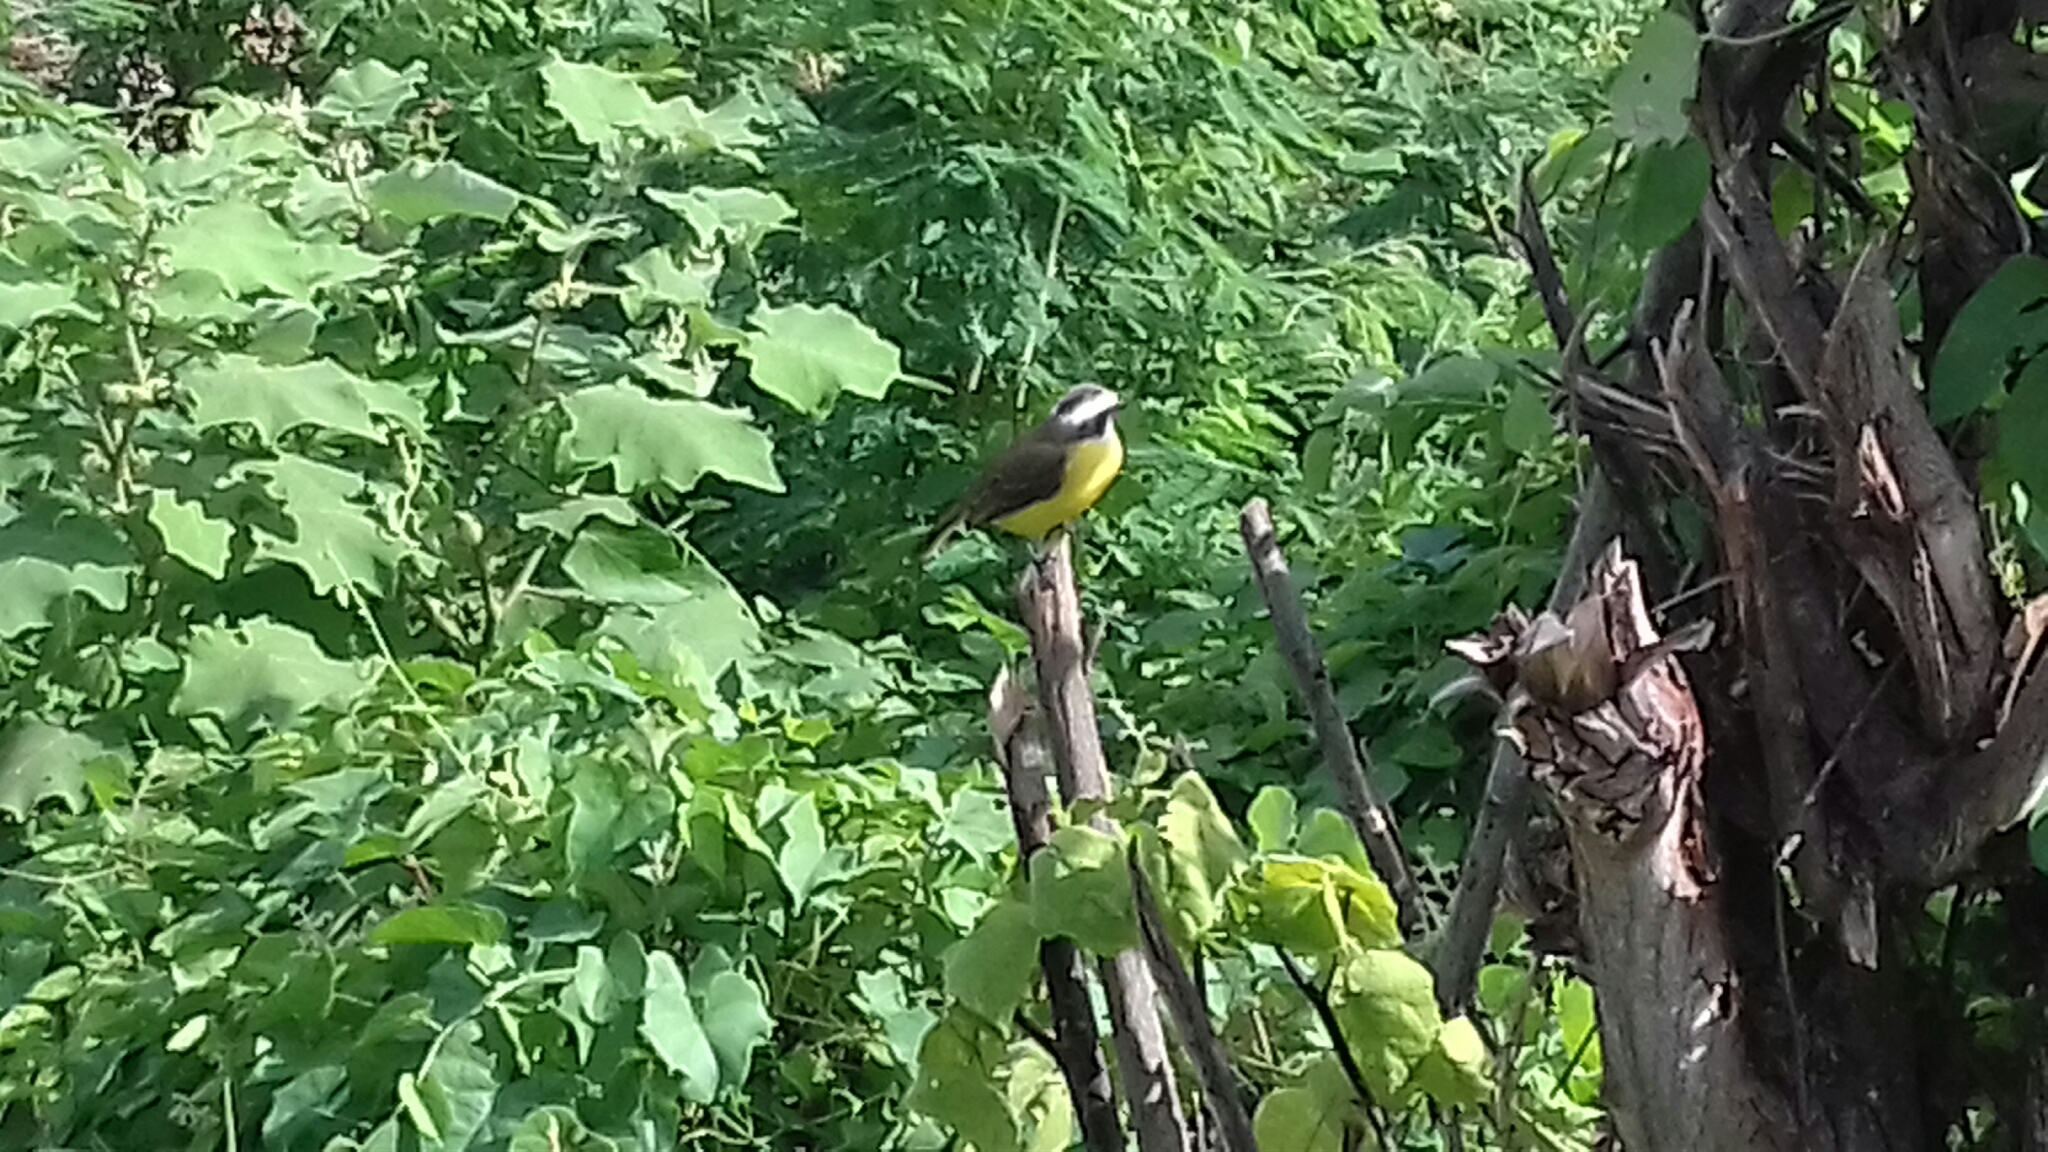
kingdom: Animalia
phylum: Chordata
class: Aves
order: Passeriformes
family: Tyrannidae
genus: Myiozetetes
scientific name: Myiozetetes similis
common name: Social flycatcher
